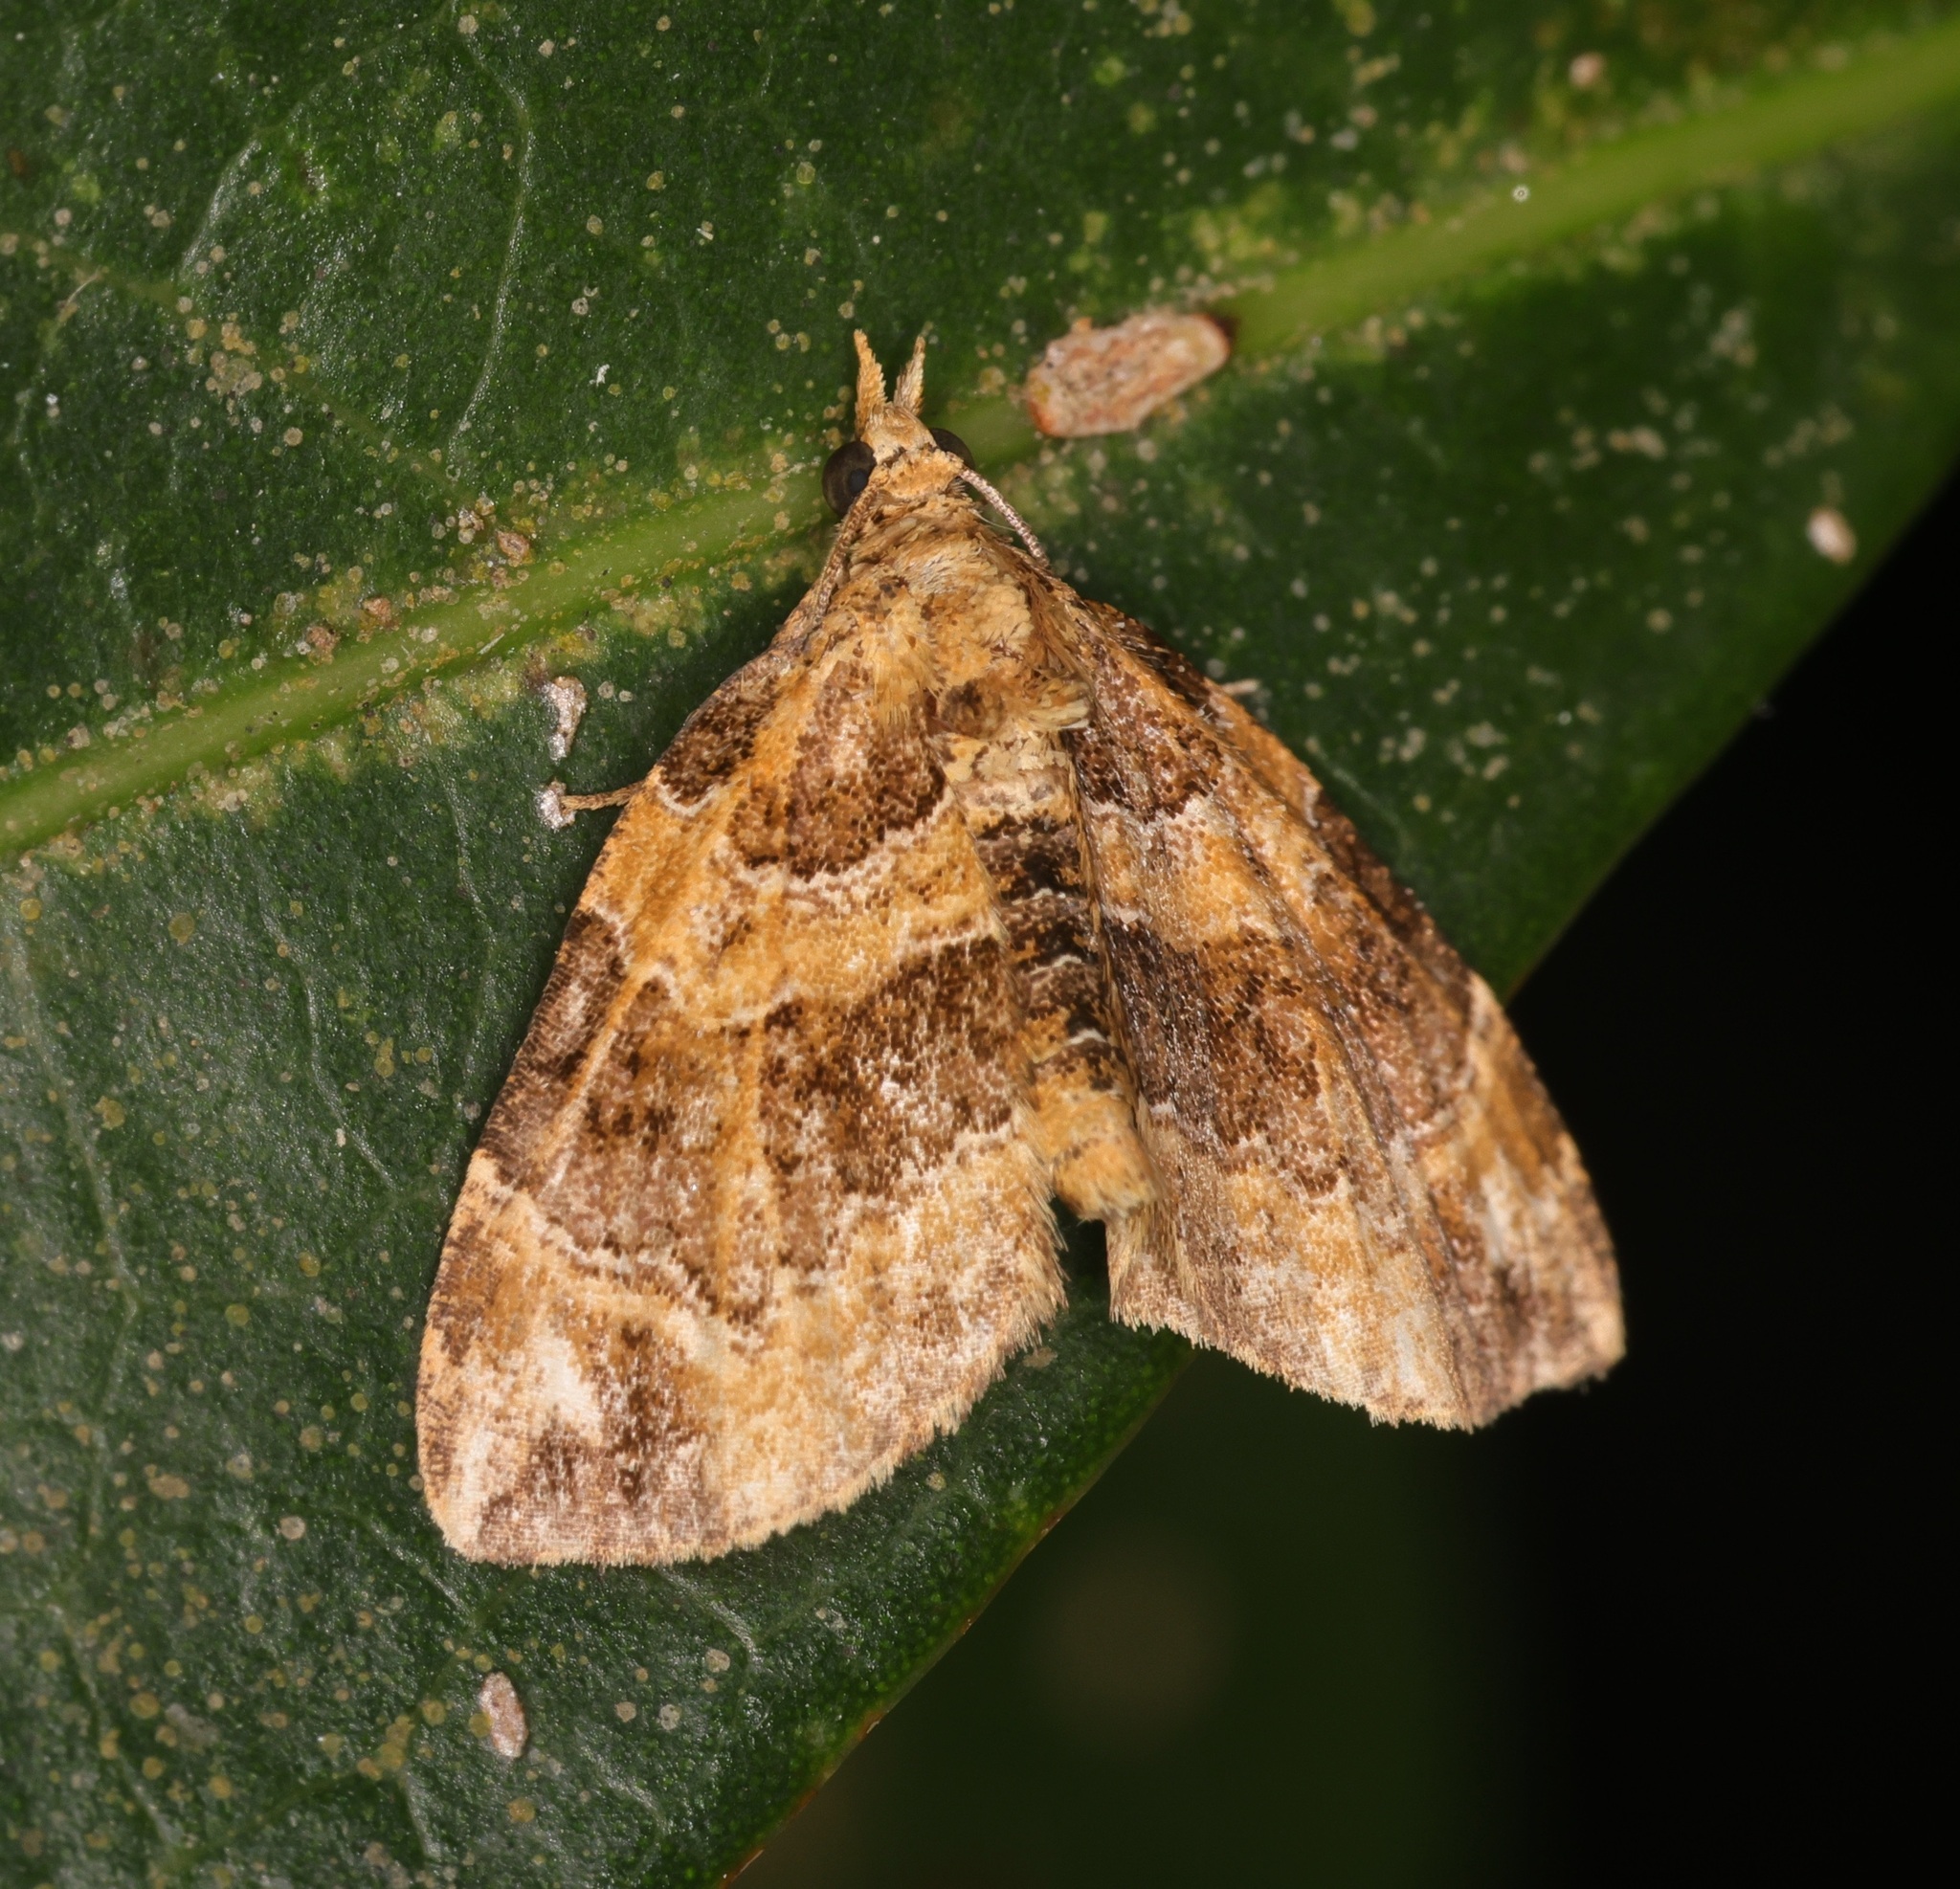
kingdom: Animalia
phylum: Arthropoda
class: Insecta
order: Lepidoptera
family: Geometridae
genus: Chaetolopha
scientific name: Chaetolopha incurvata
